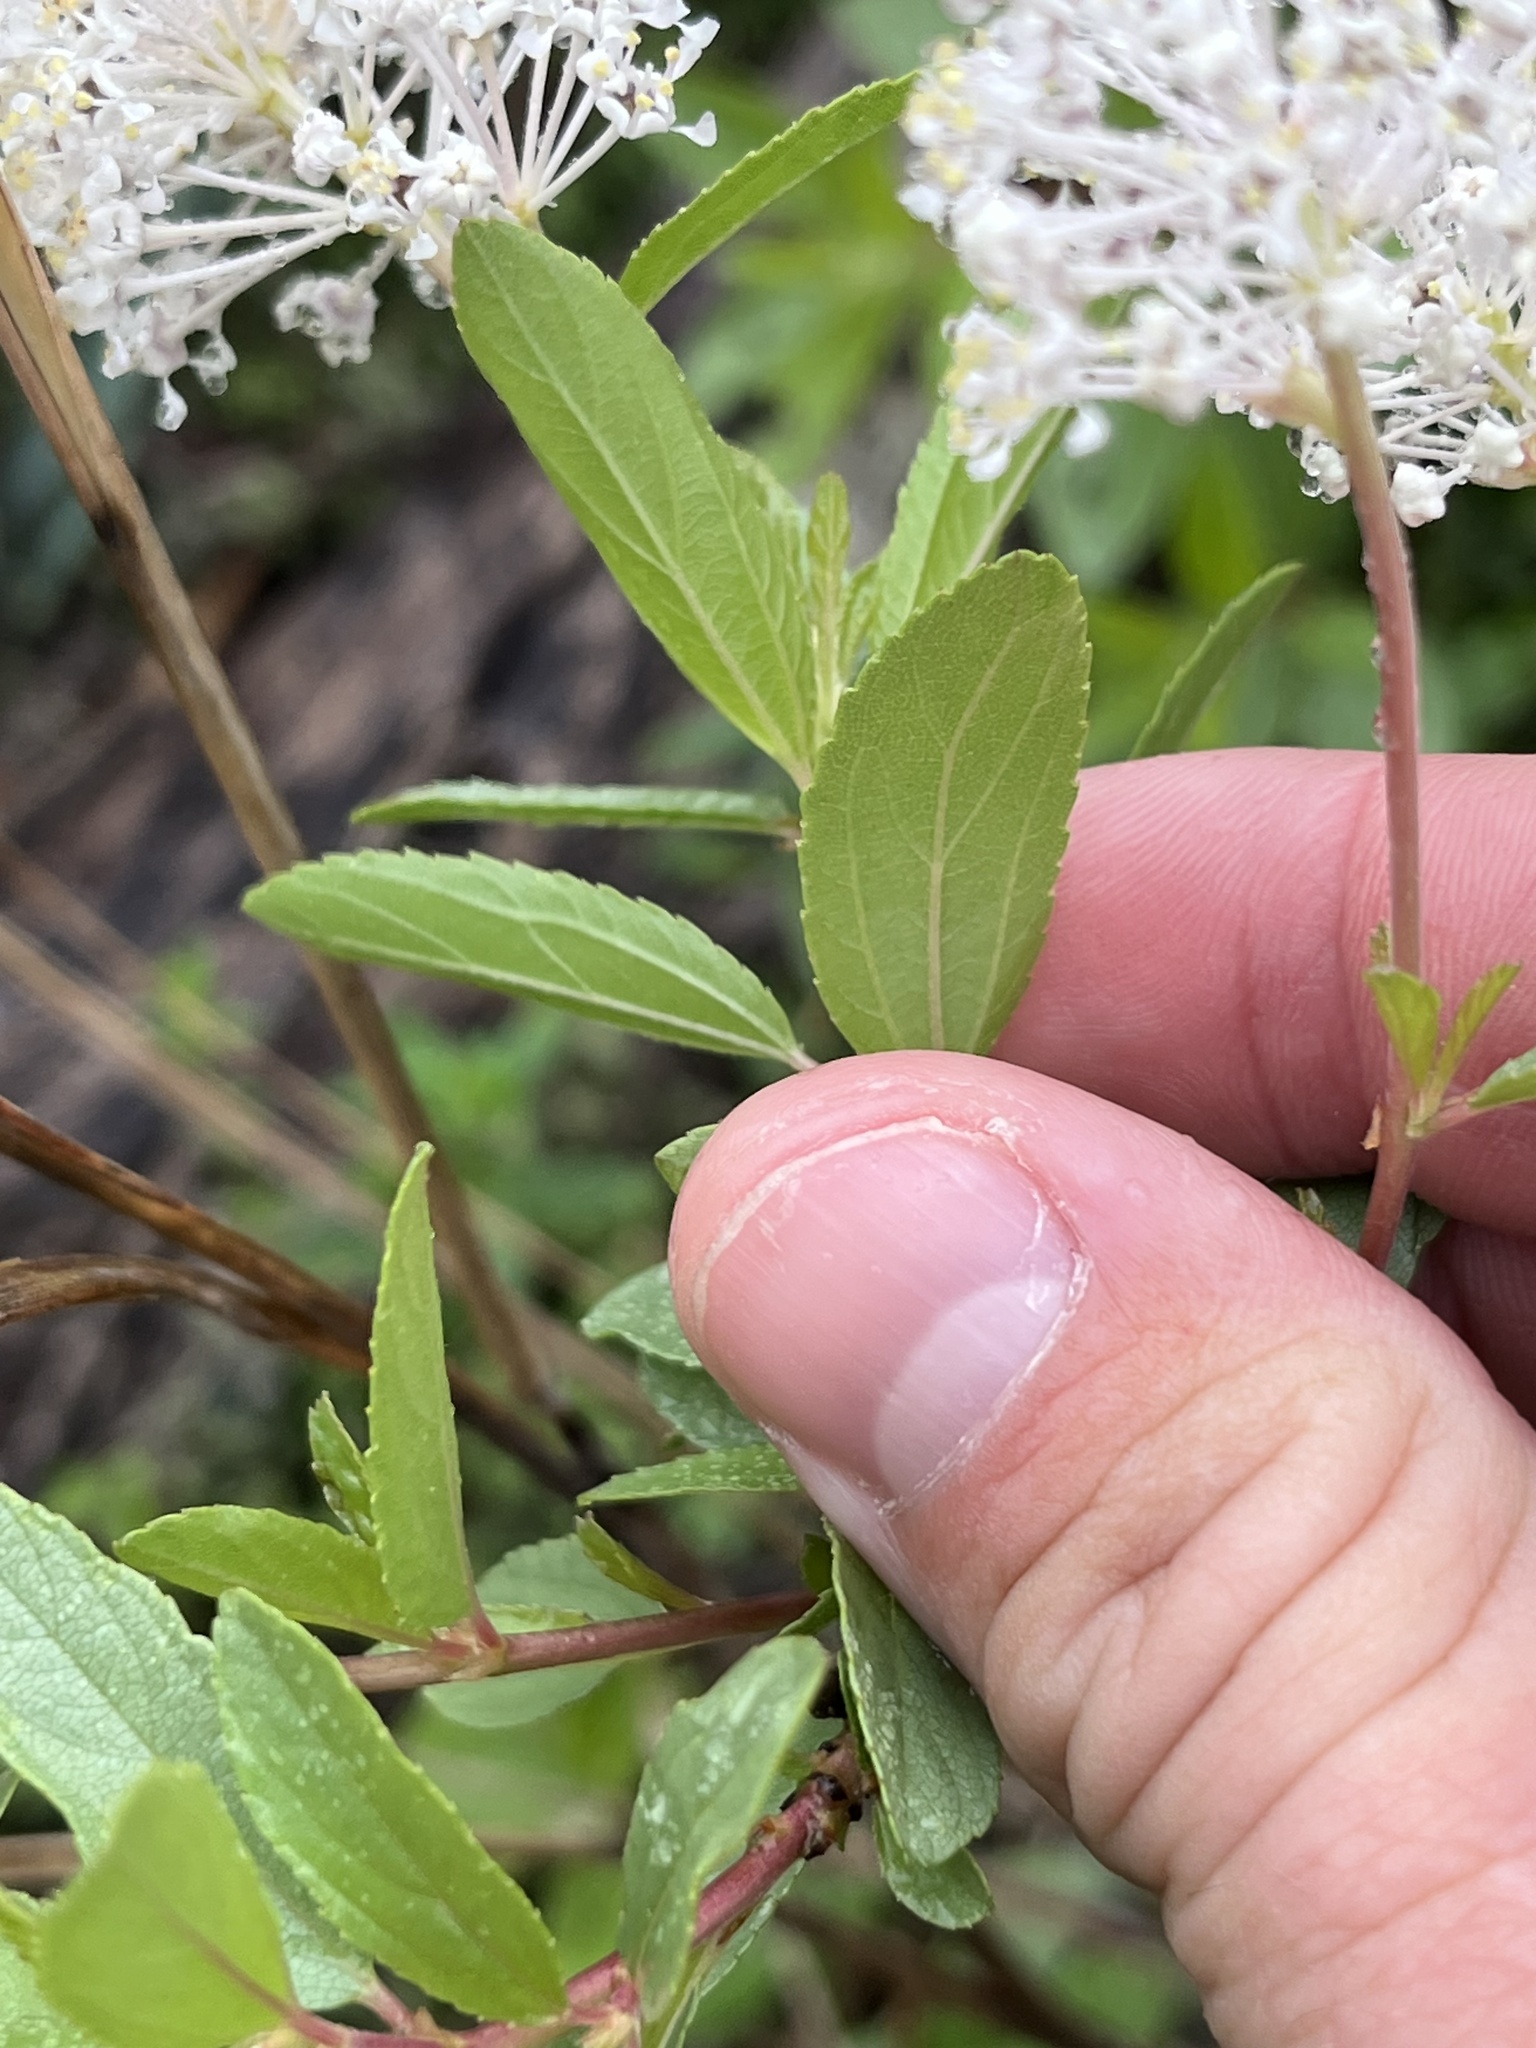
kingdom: Plantae
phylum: Tracheophyta
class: Magnoliopsida
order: Rosales
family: Rhamnaceae
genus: Ceanothus
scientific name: Ceanothus herbaceus
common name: Inland ceanothus
